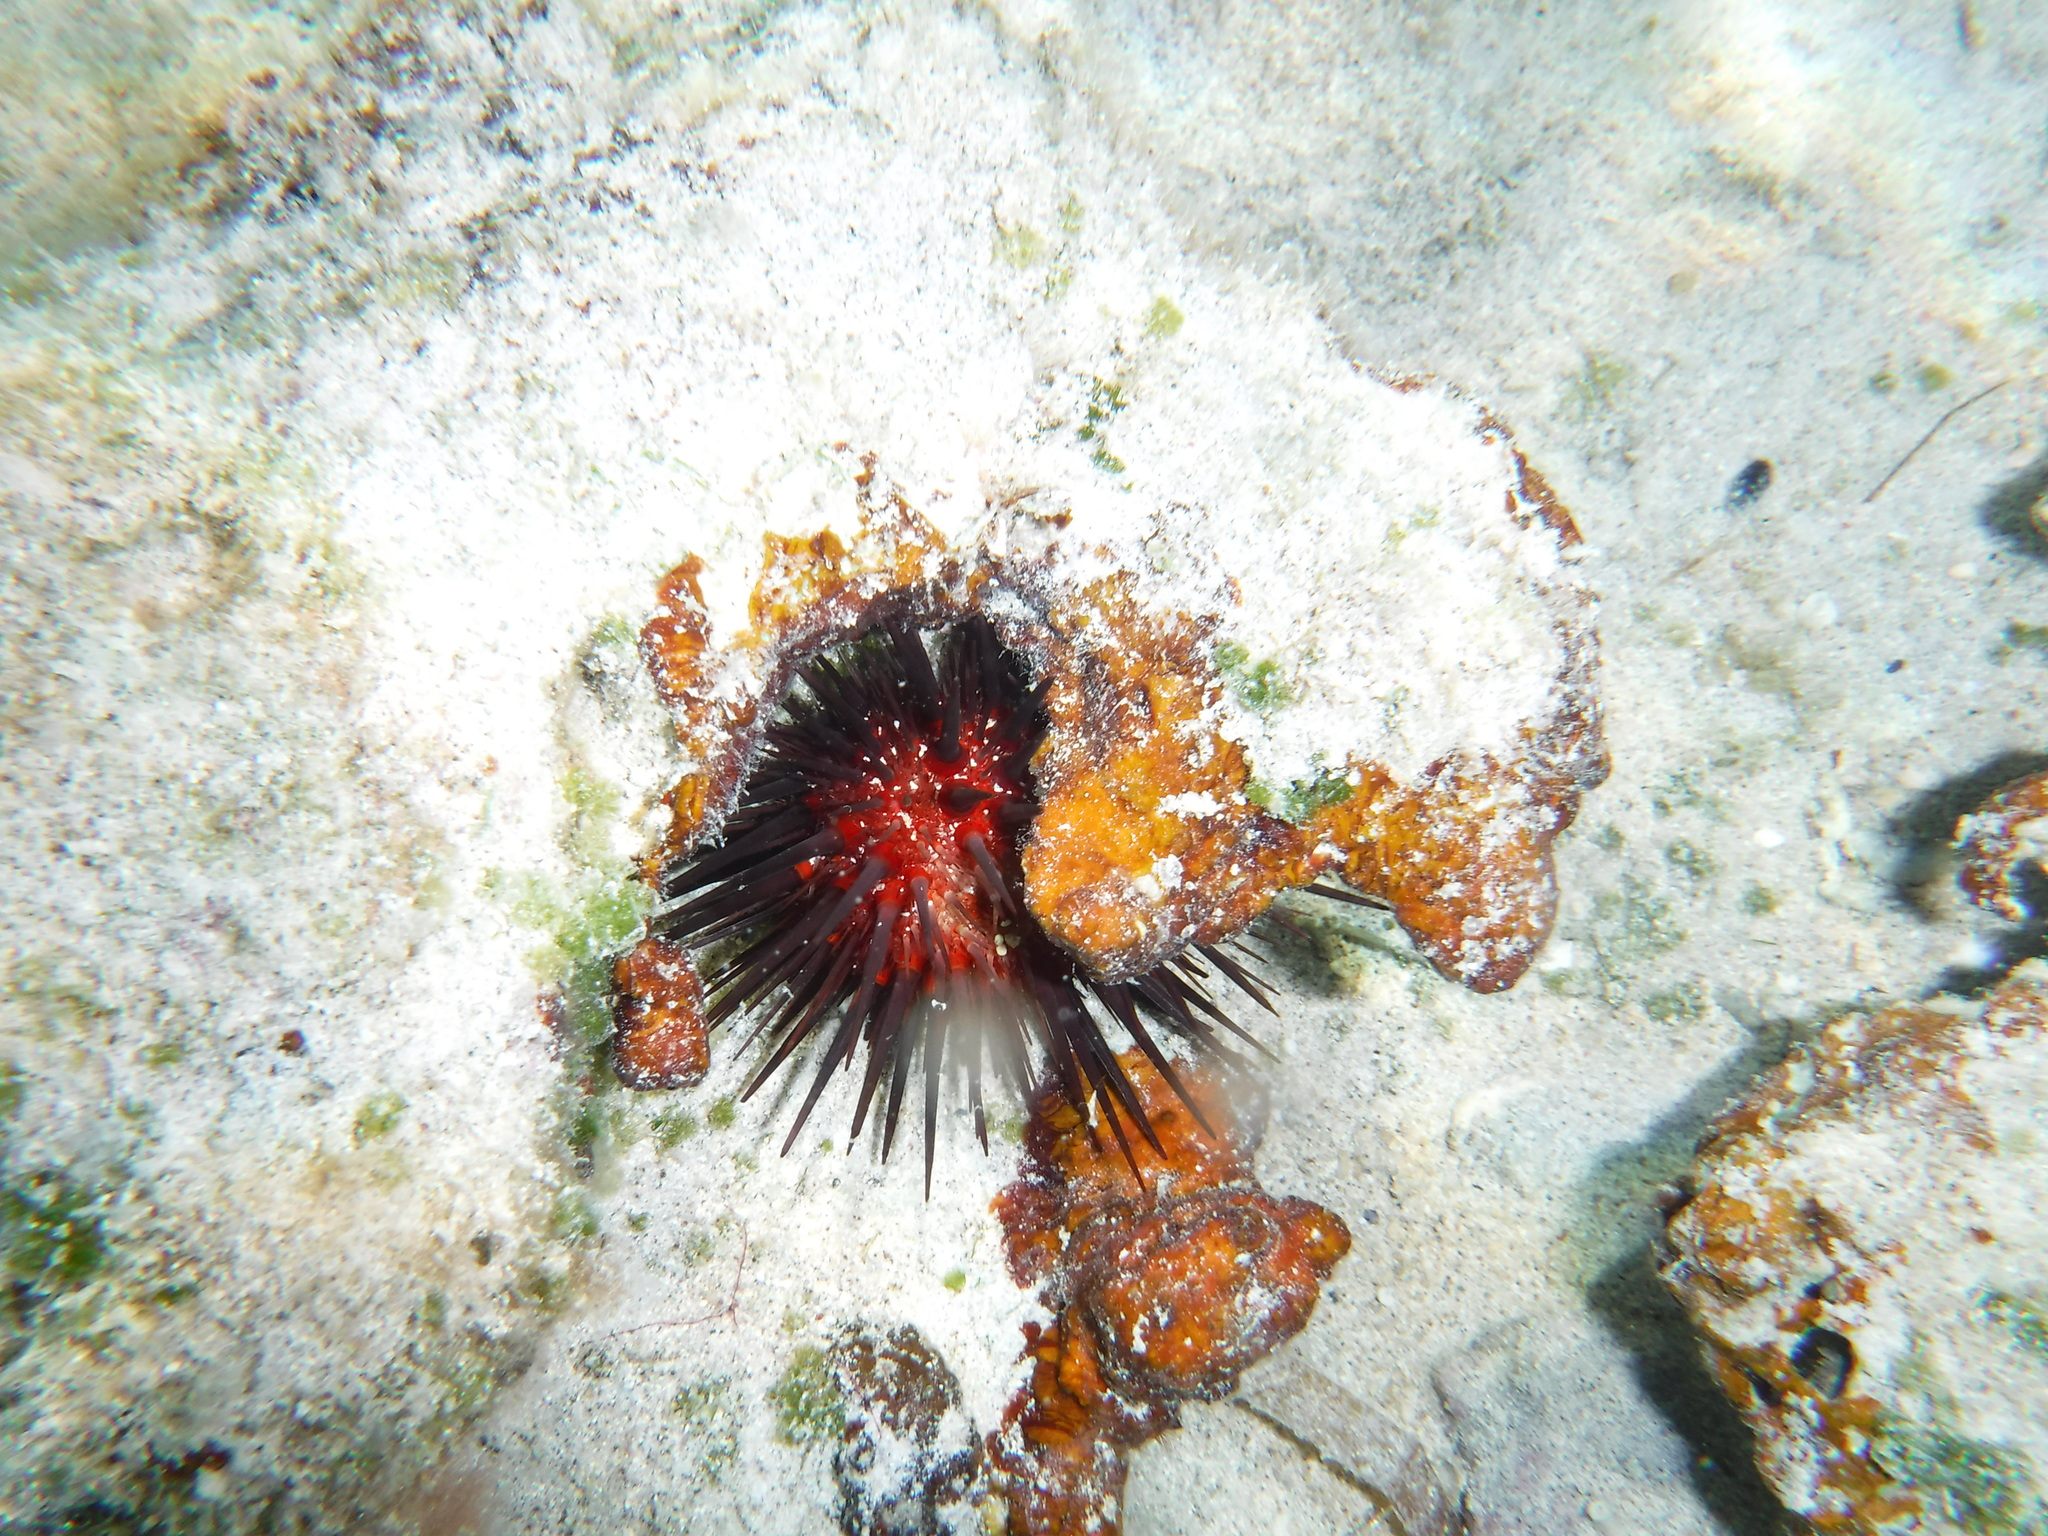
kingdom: Animalia
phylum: Echinodermata
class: Echinoidea
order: Camarodonta
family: Echinometridae
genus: Echinometra
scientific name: Echinometra lucunter
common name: Rock urchin
